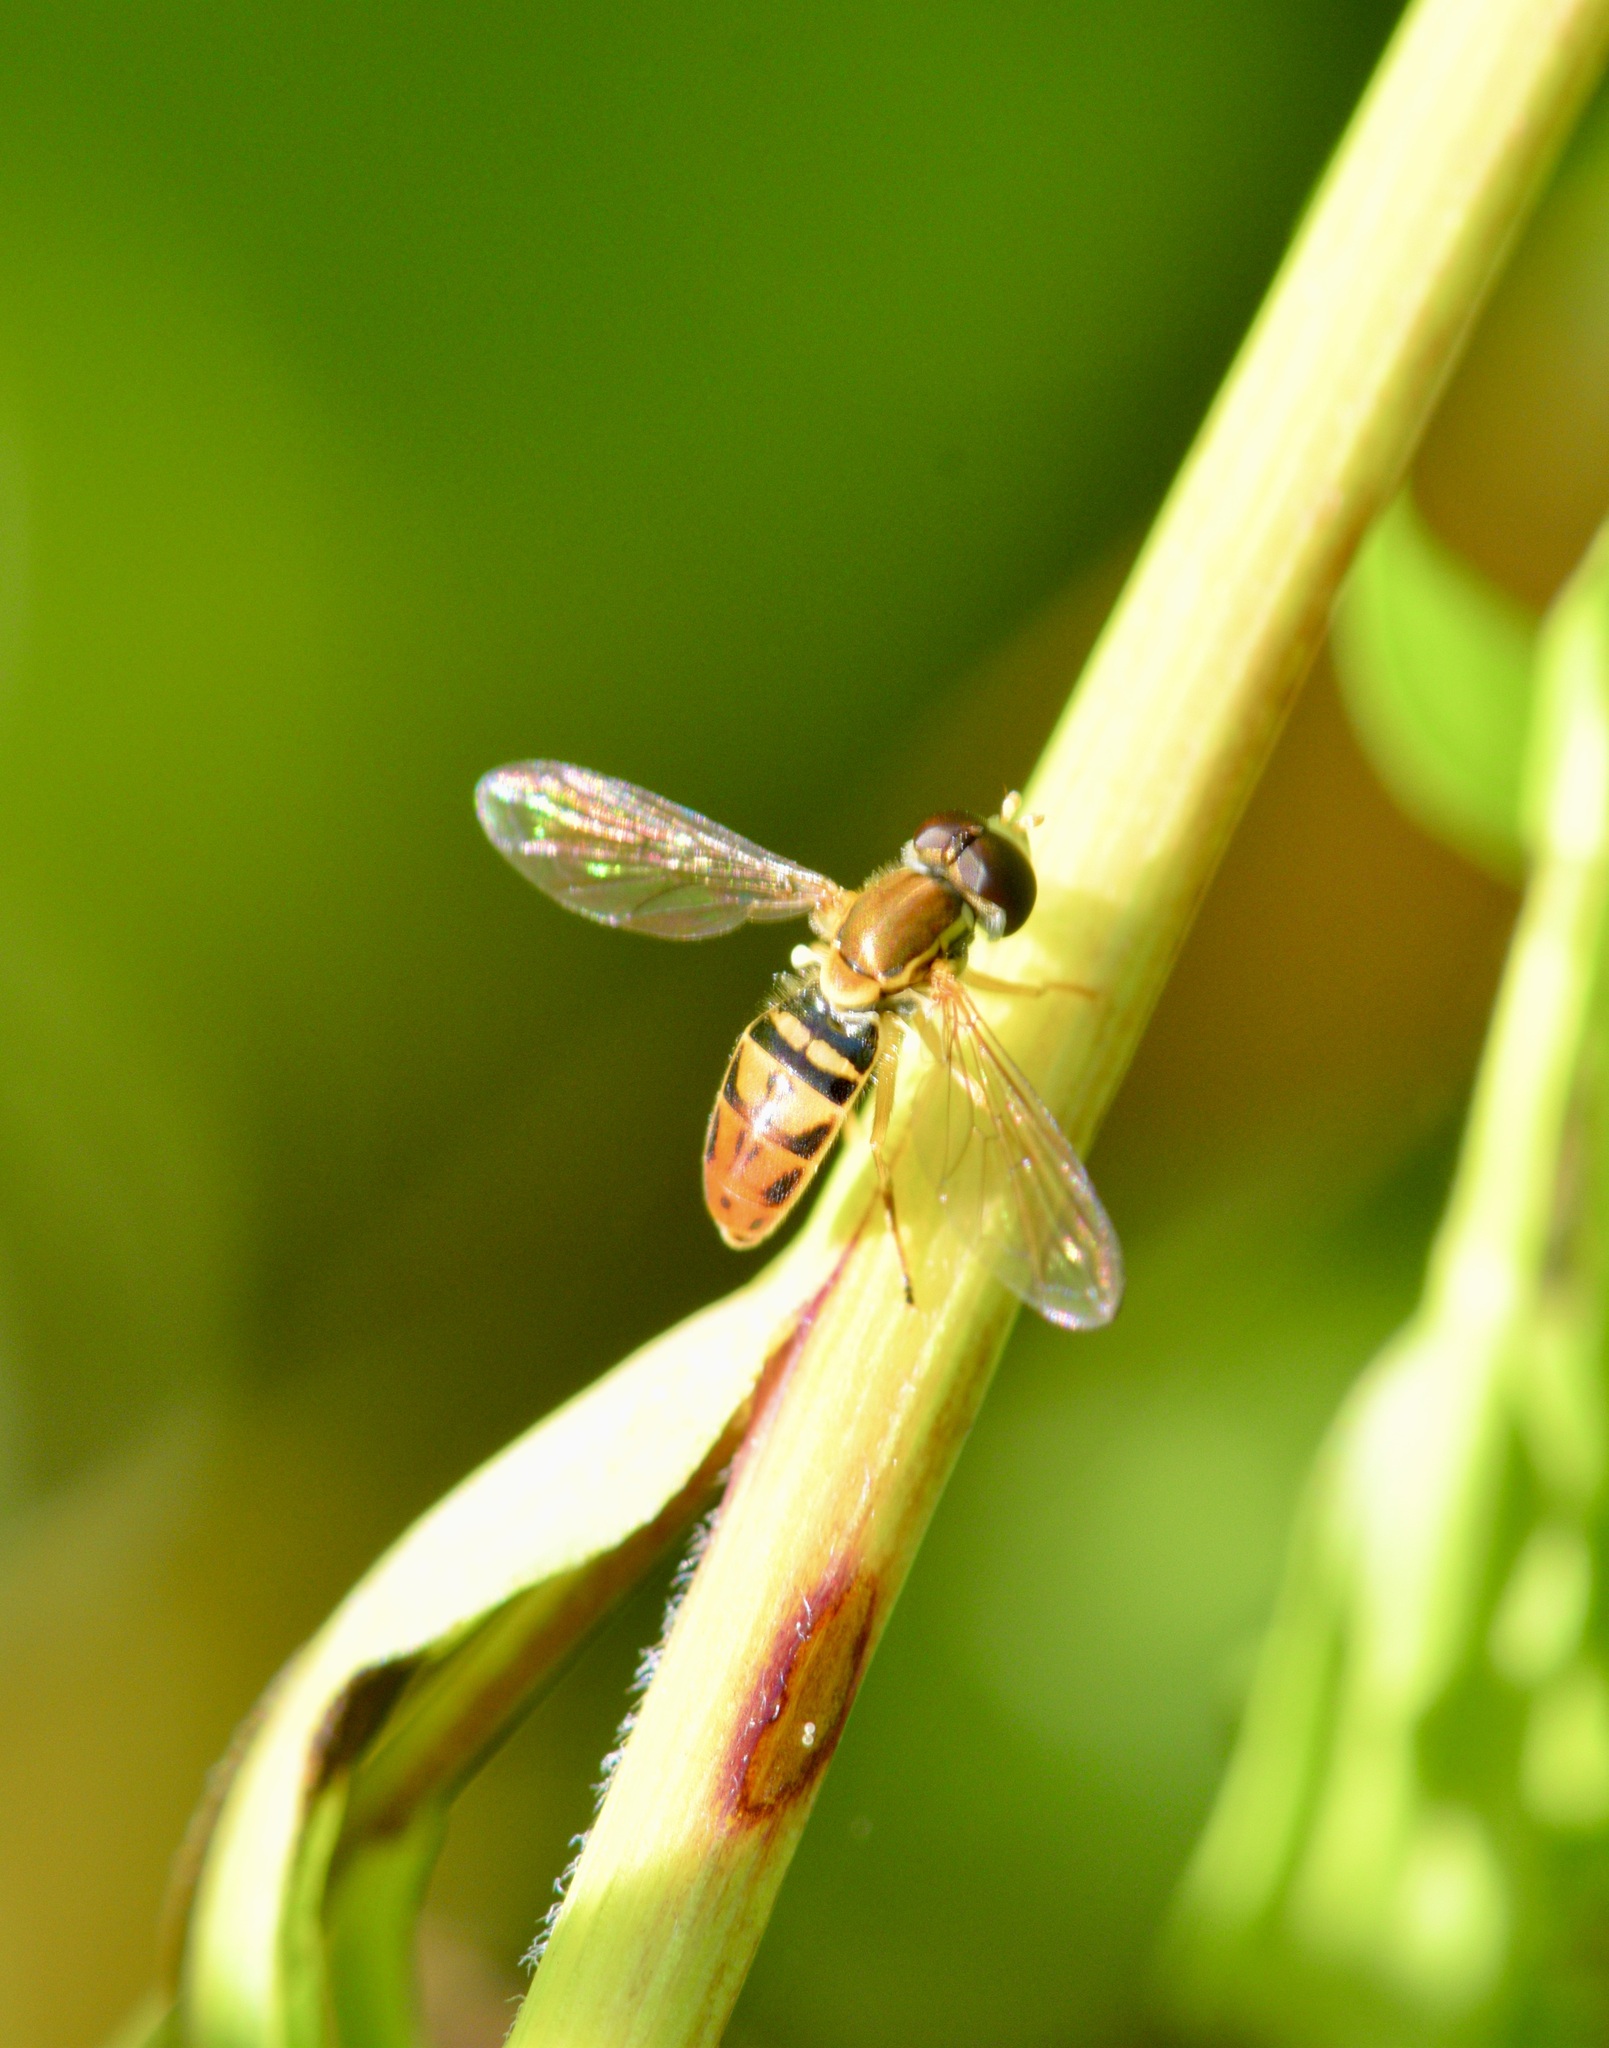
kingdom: Animalia
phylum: Arthropoda
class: Insecta
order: Diptera
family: Syrphidae
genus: Toxomerus
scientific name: Toxomerus marginatus
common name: Syrphid fly
